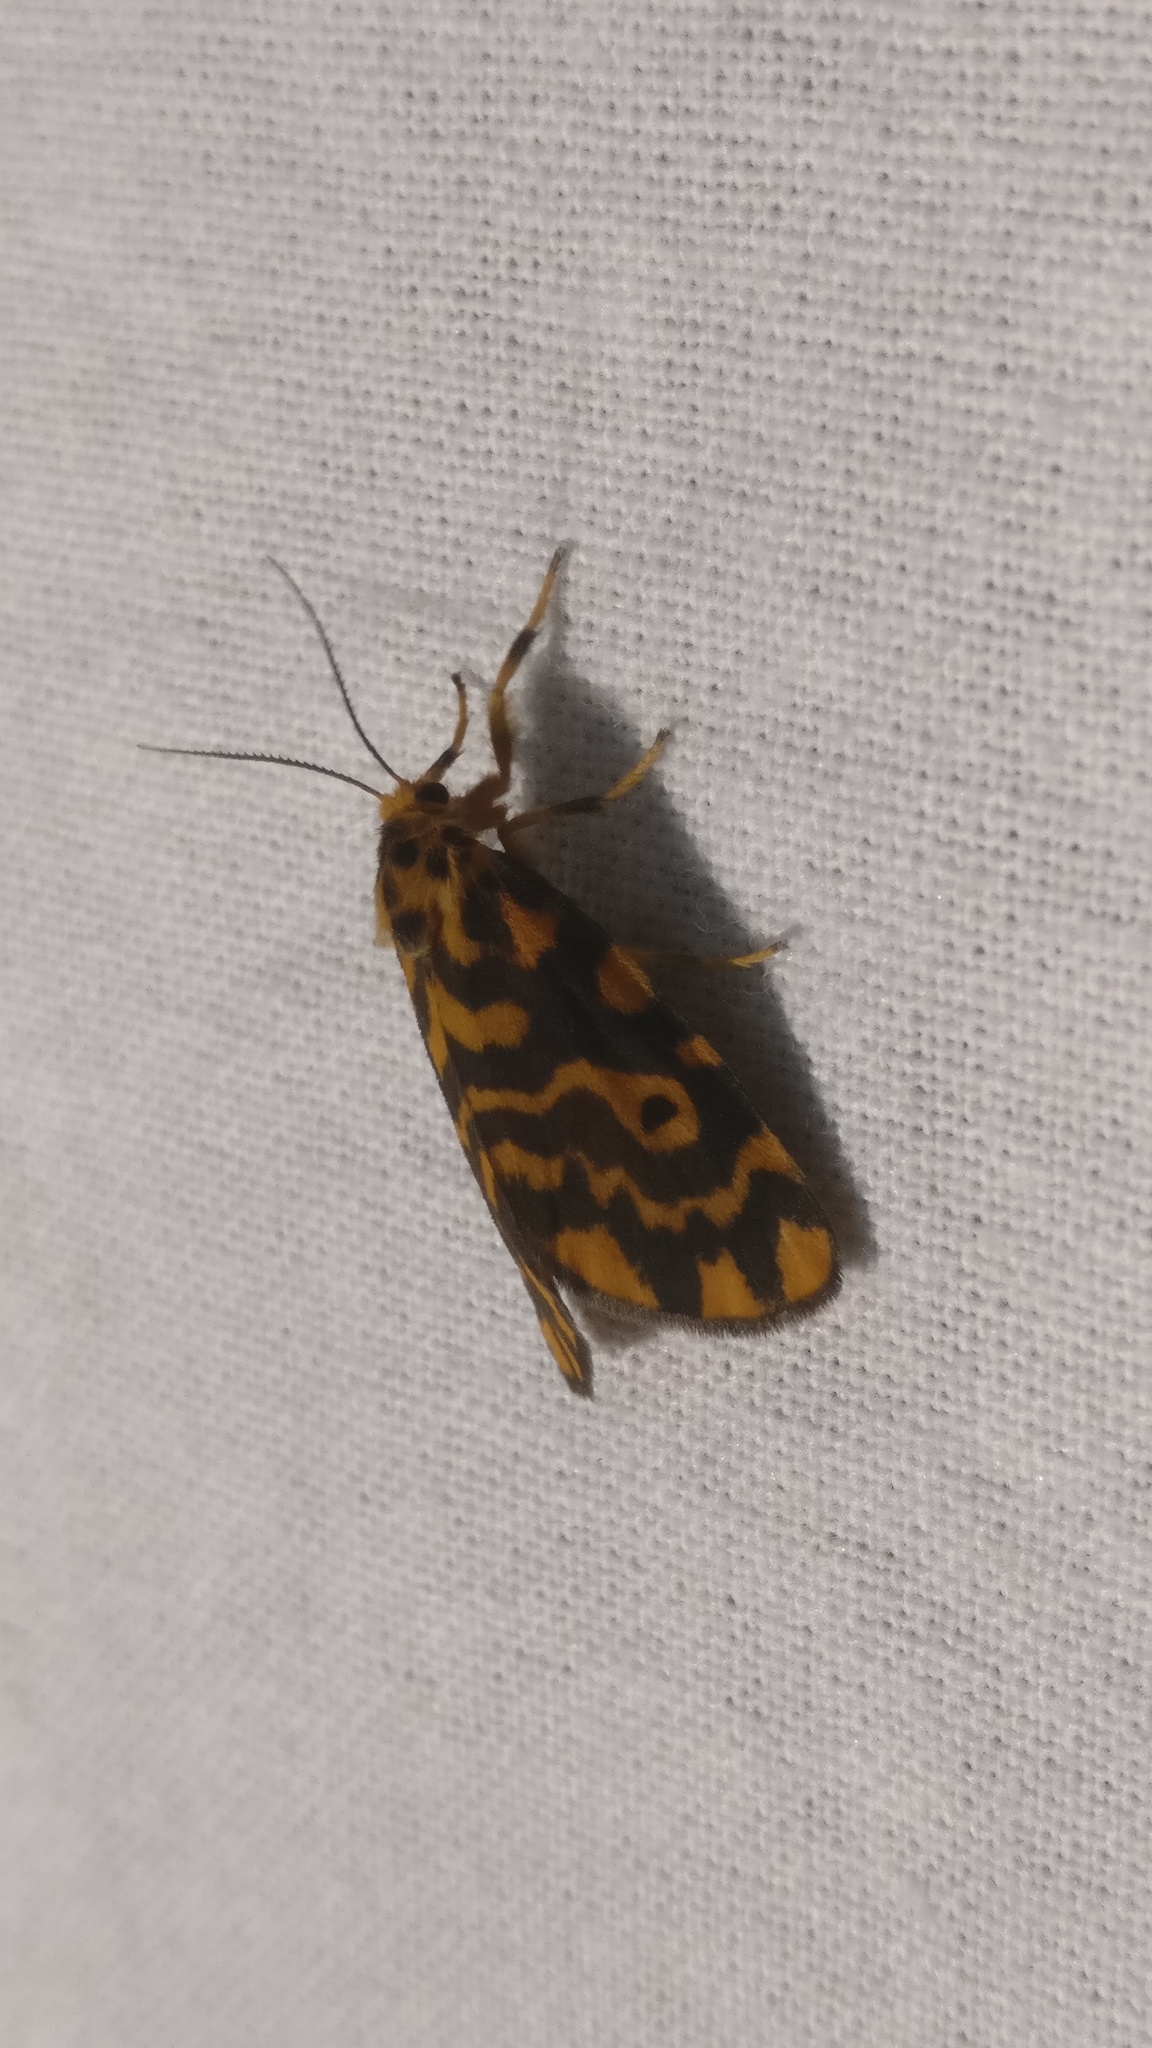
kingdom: Animalia
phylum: Arthropoda
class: Insecta
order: Lepidoptera
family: Erebidae
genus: Nepita
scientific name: Nepita conferta
